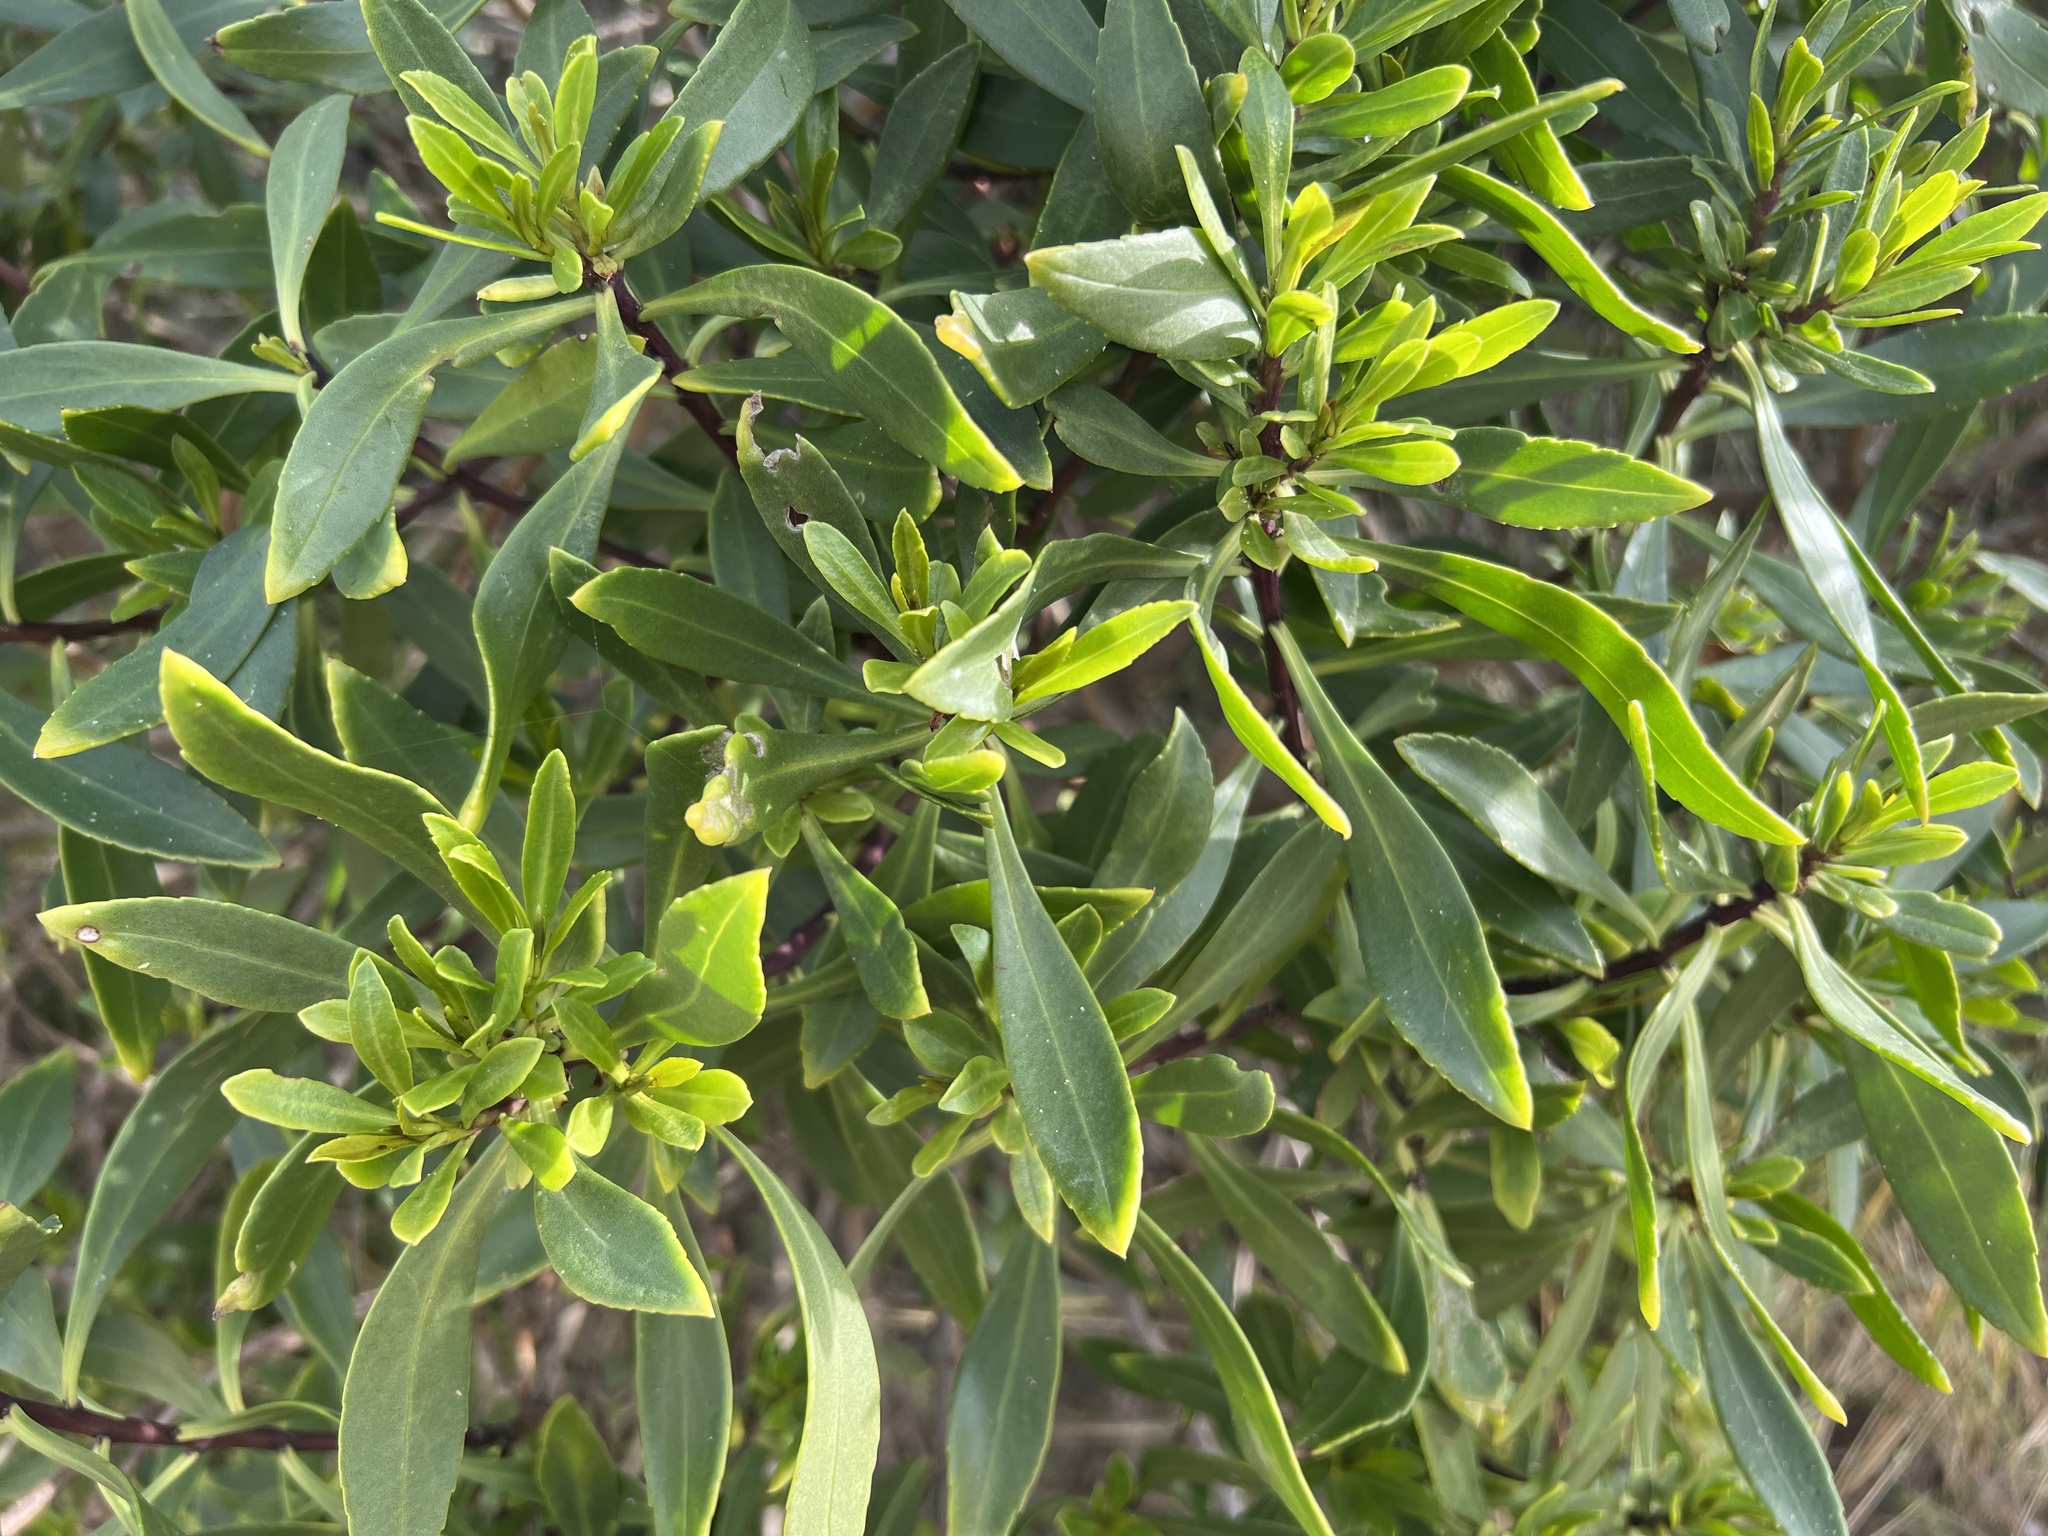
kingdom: Plantae
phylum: Tracheophyta
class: Magnoliopsida
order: Lamiales
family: Scrophulariaceae
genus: Myoporum
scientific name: Myoporum insulare
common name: Common boobialla
